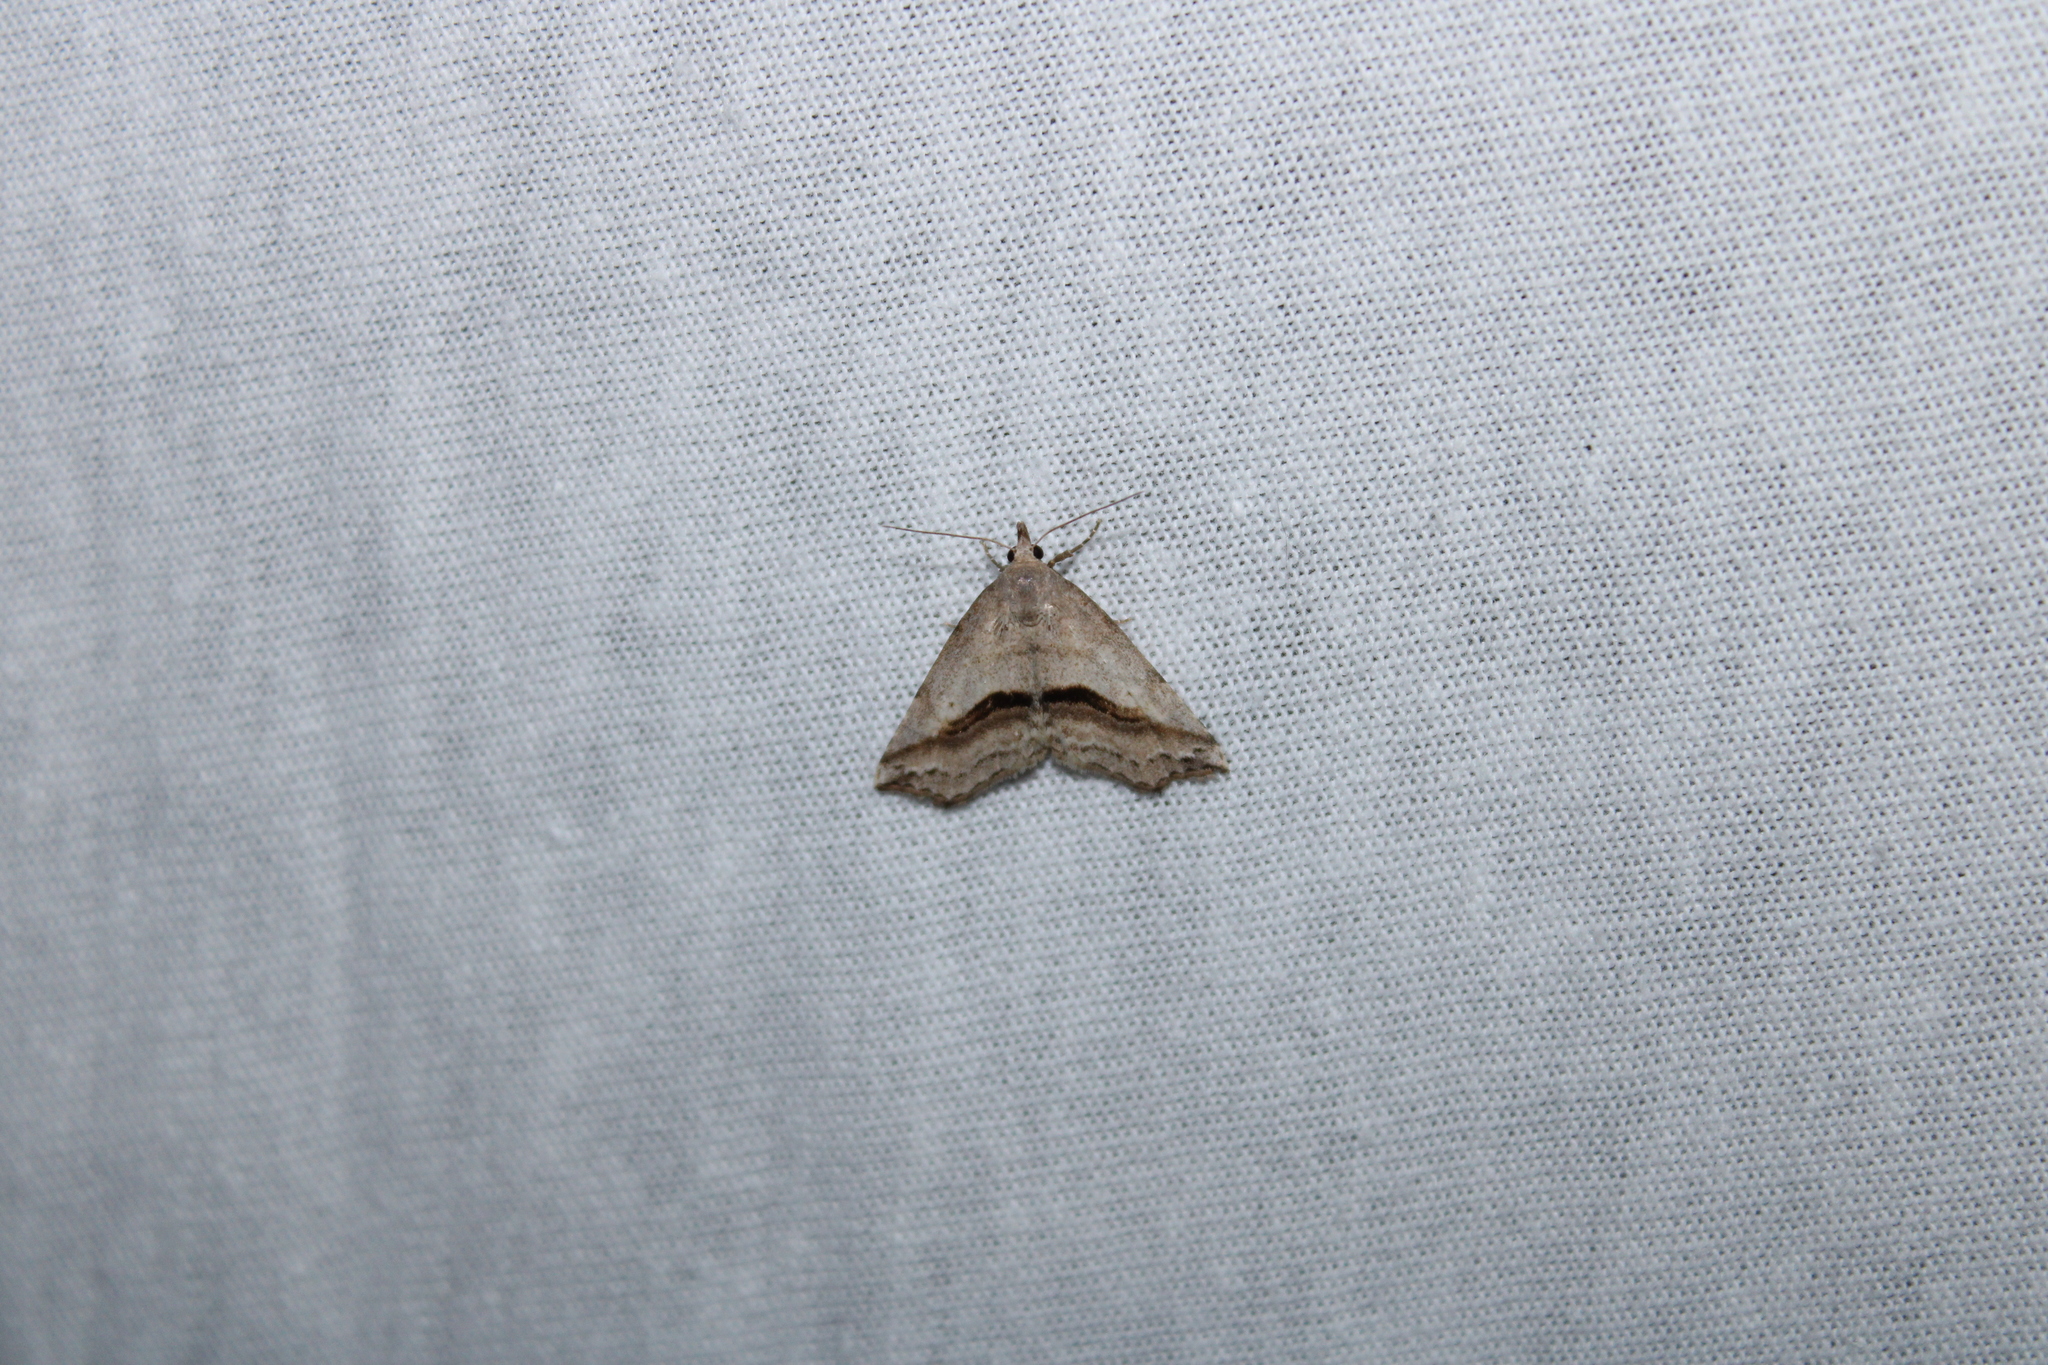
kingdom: Animalia
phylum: Arthropoda
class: Insecta
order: Lepidoptera
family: Erebidae
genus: Spargaloma
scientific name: Spargaloma perditalis
